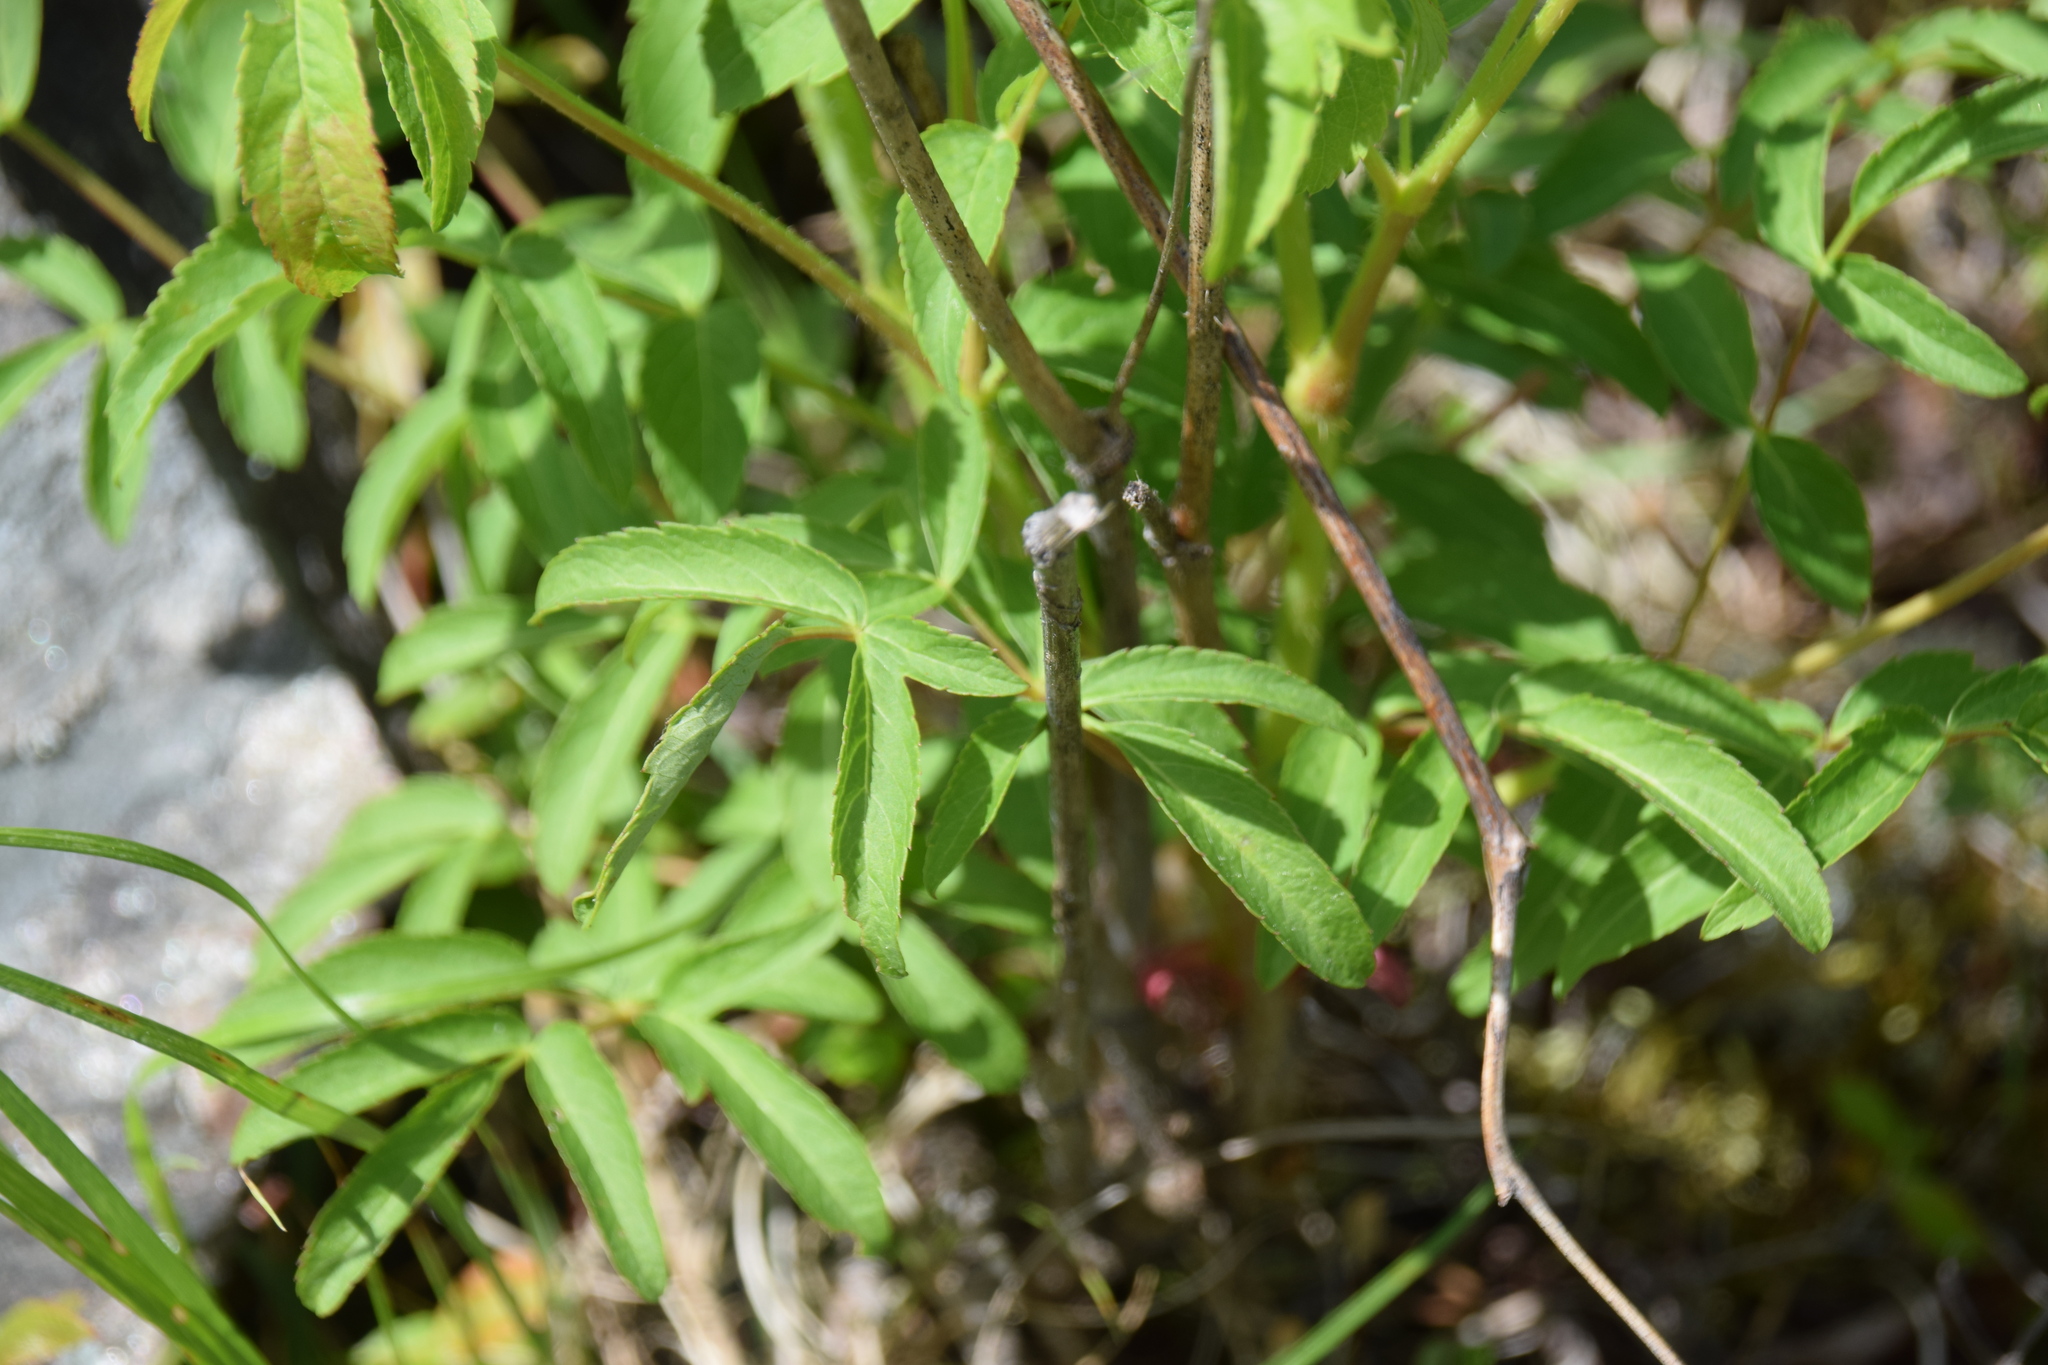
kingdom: Plantae
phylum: Tracheophyta
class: Magnoliopsida
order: Apiales
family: Araliaceae
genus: Aralia
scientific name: Aralia hispida
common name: Bristly sarsaparilla
